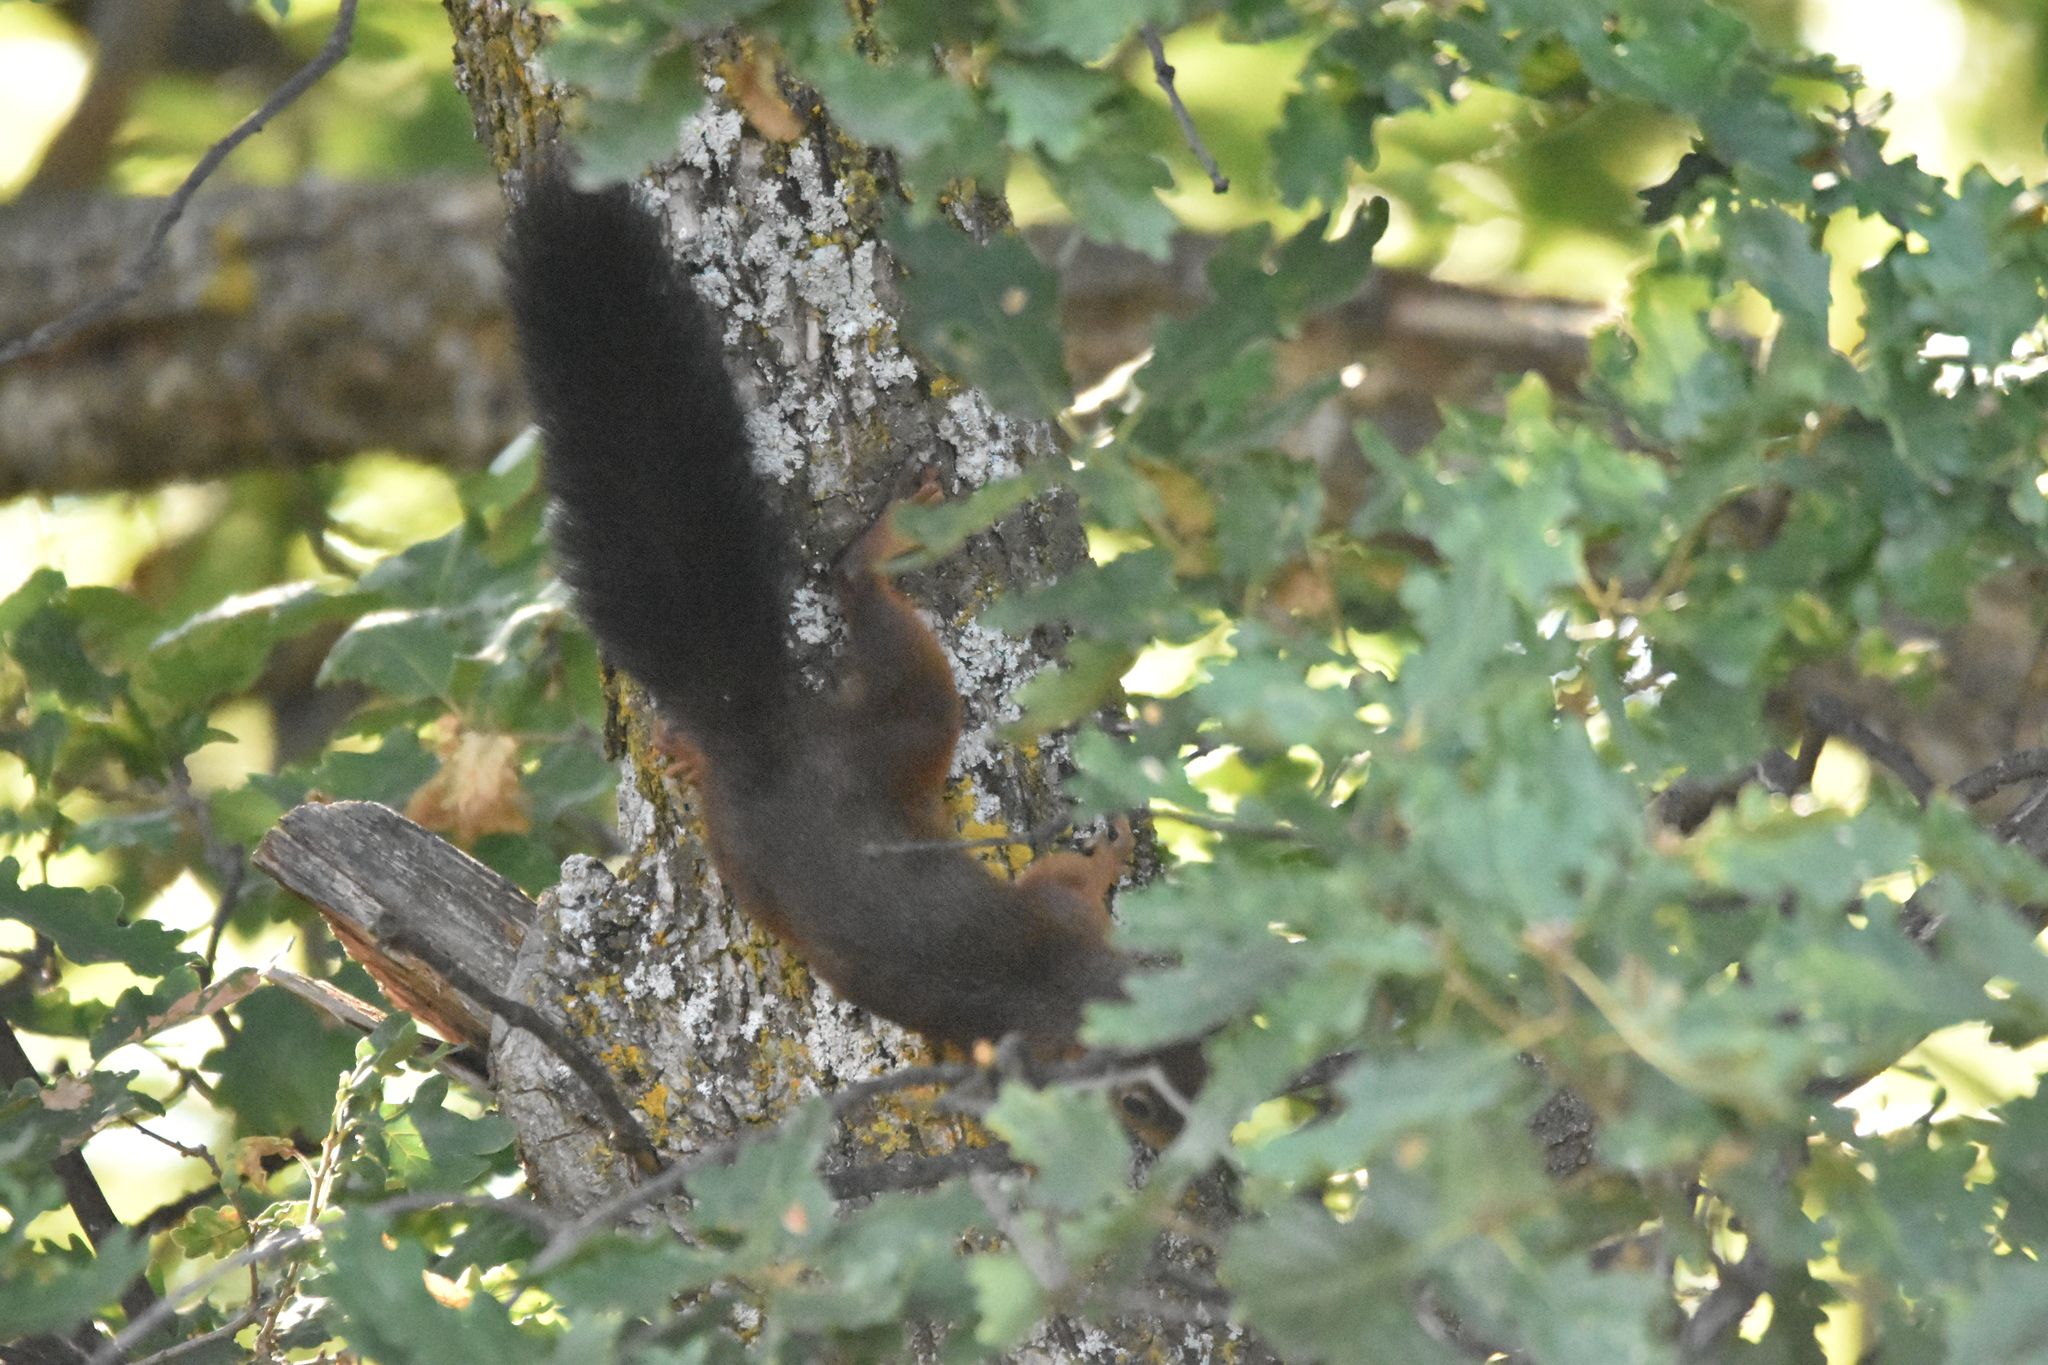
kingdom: Animalia
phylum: Chordata
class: Mammalia
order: Rodentia
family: Sciuridae
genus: Sciurus
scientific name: Sciurus vulgaris
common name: Eurasian red squirrel
